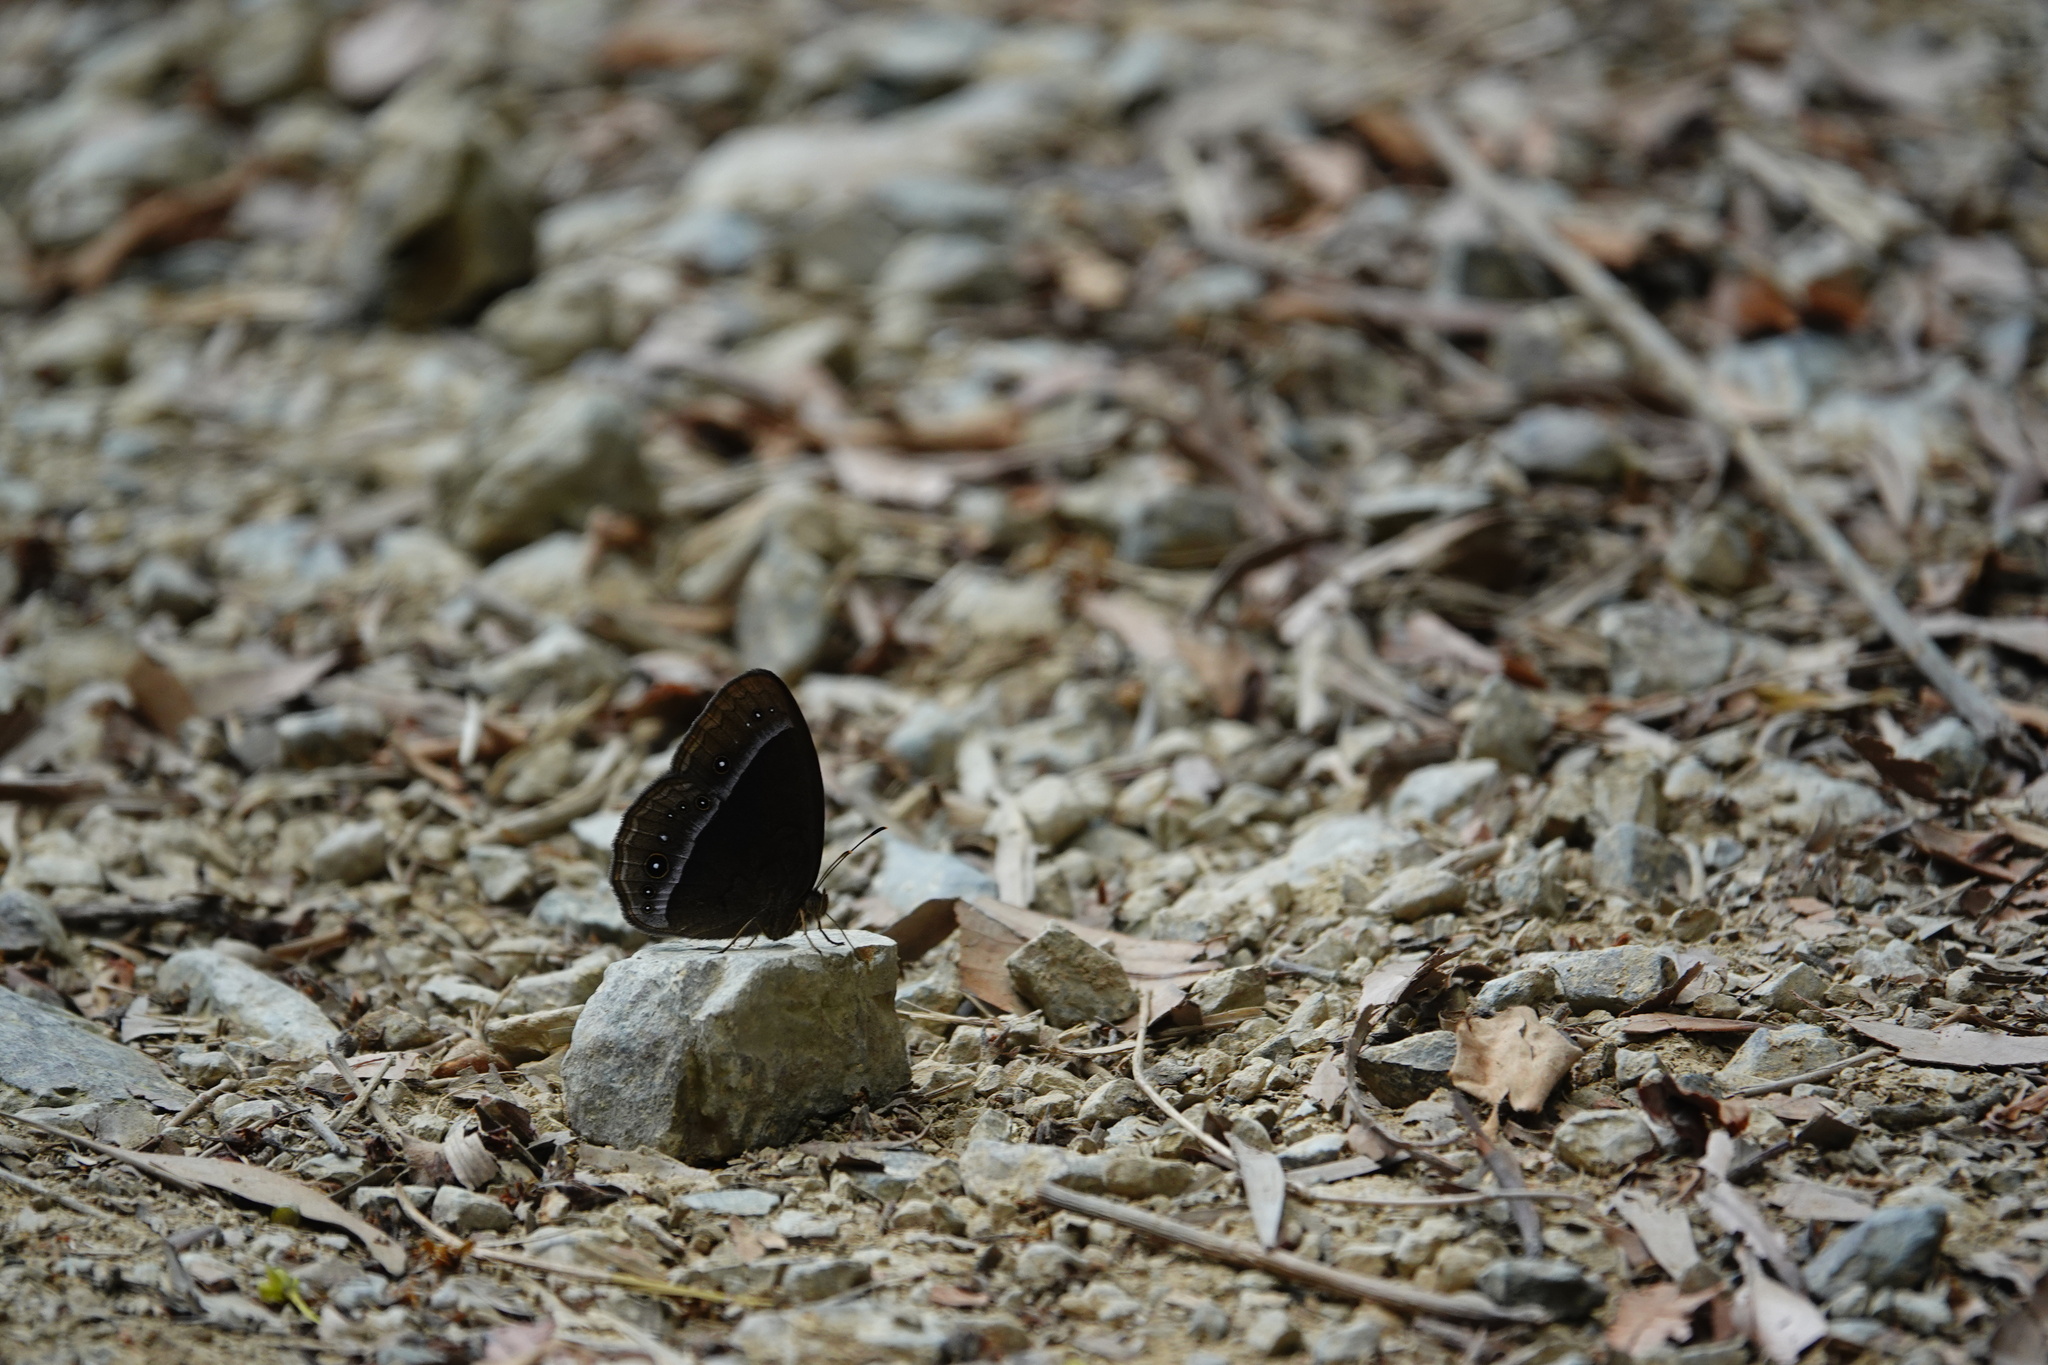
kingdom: Animalia
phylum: Arthropoda
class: Insecta
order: Lepidoptera
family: Nymphalidae
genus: Mycalesis
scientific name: Mycalesis francisca
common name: Lilacine bushbrown
